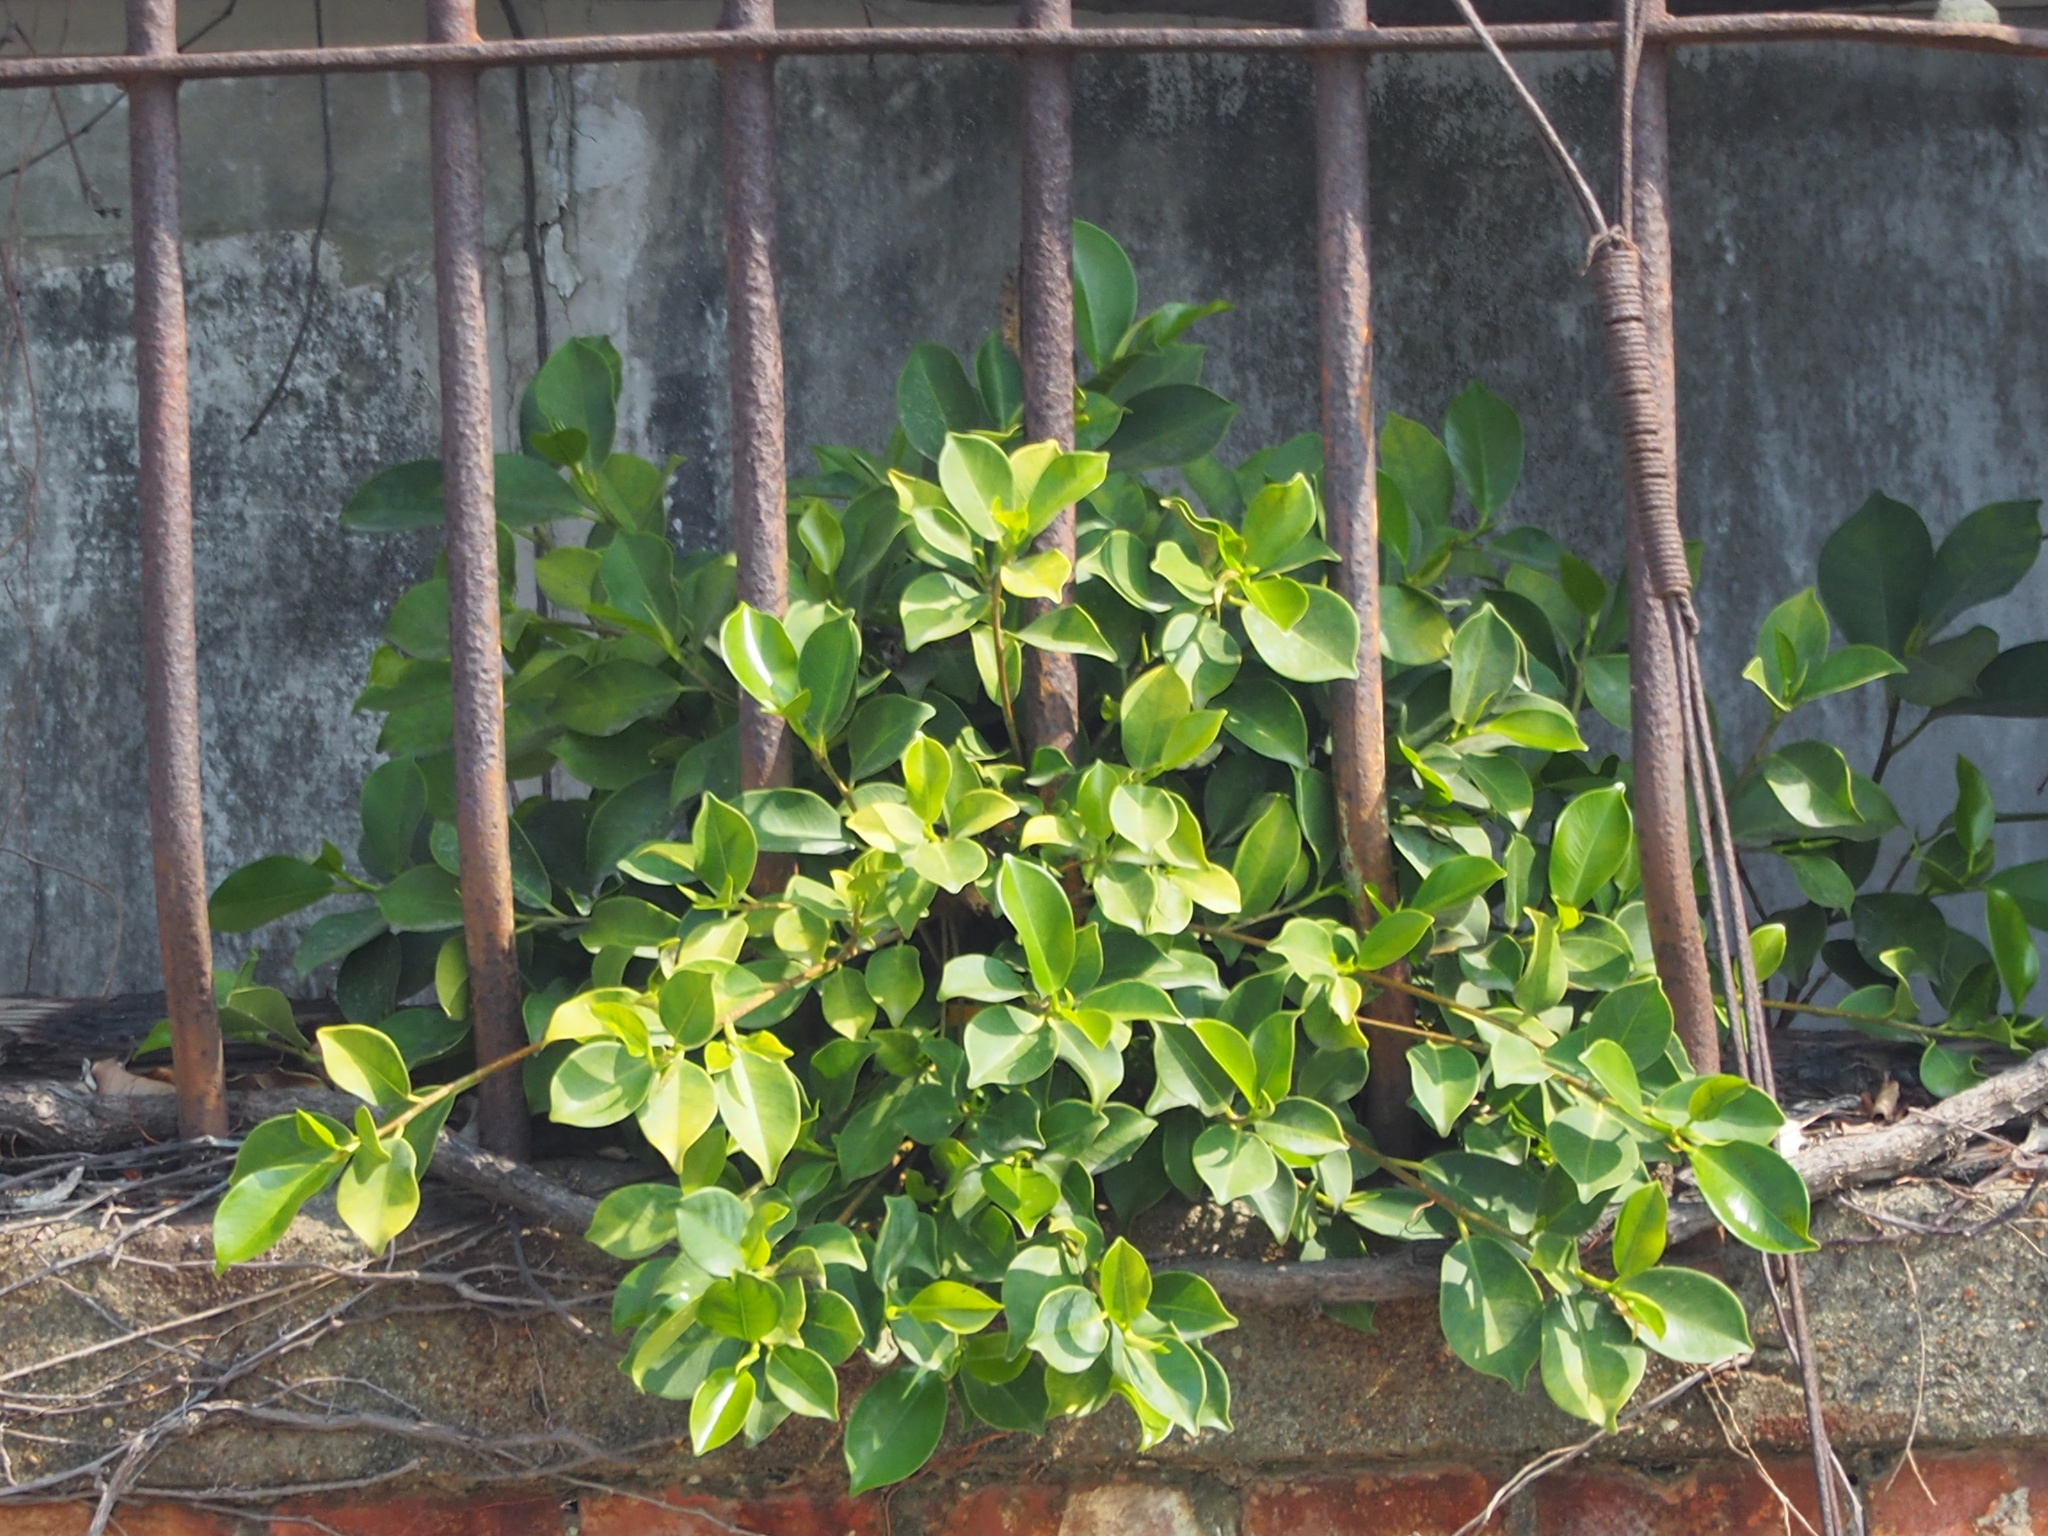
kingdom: Plantae
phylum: Tracheophyta
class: Magnoliopsida
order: Rosales
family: Moraceae
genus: Ficus
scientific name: Ficus microcarpa
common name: Chinese banyan
